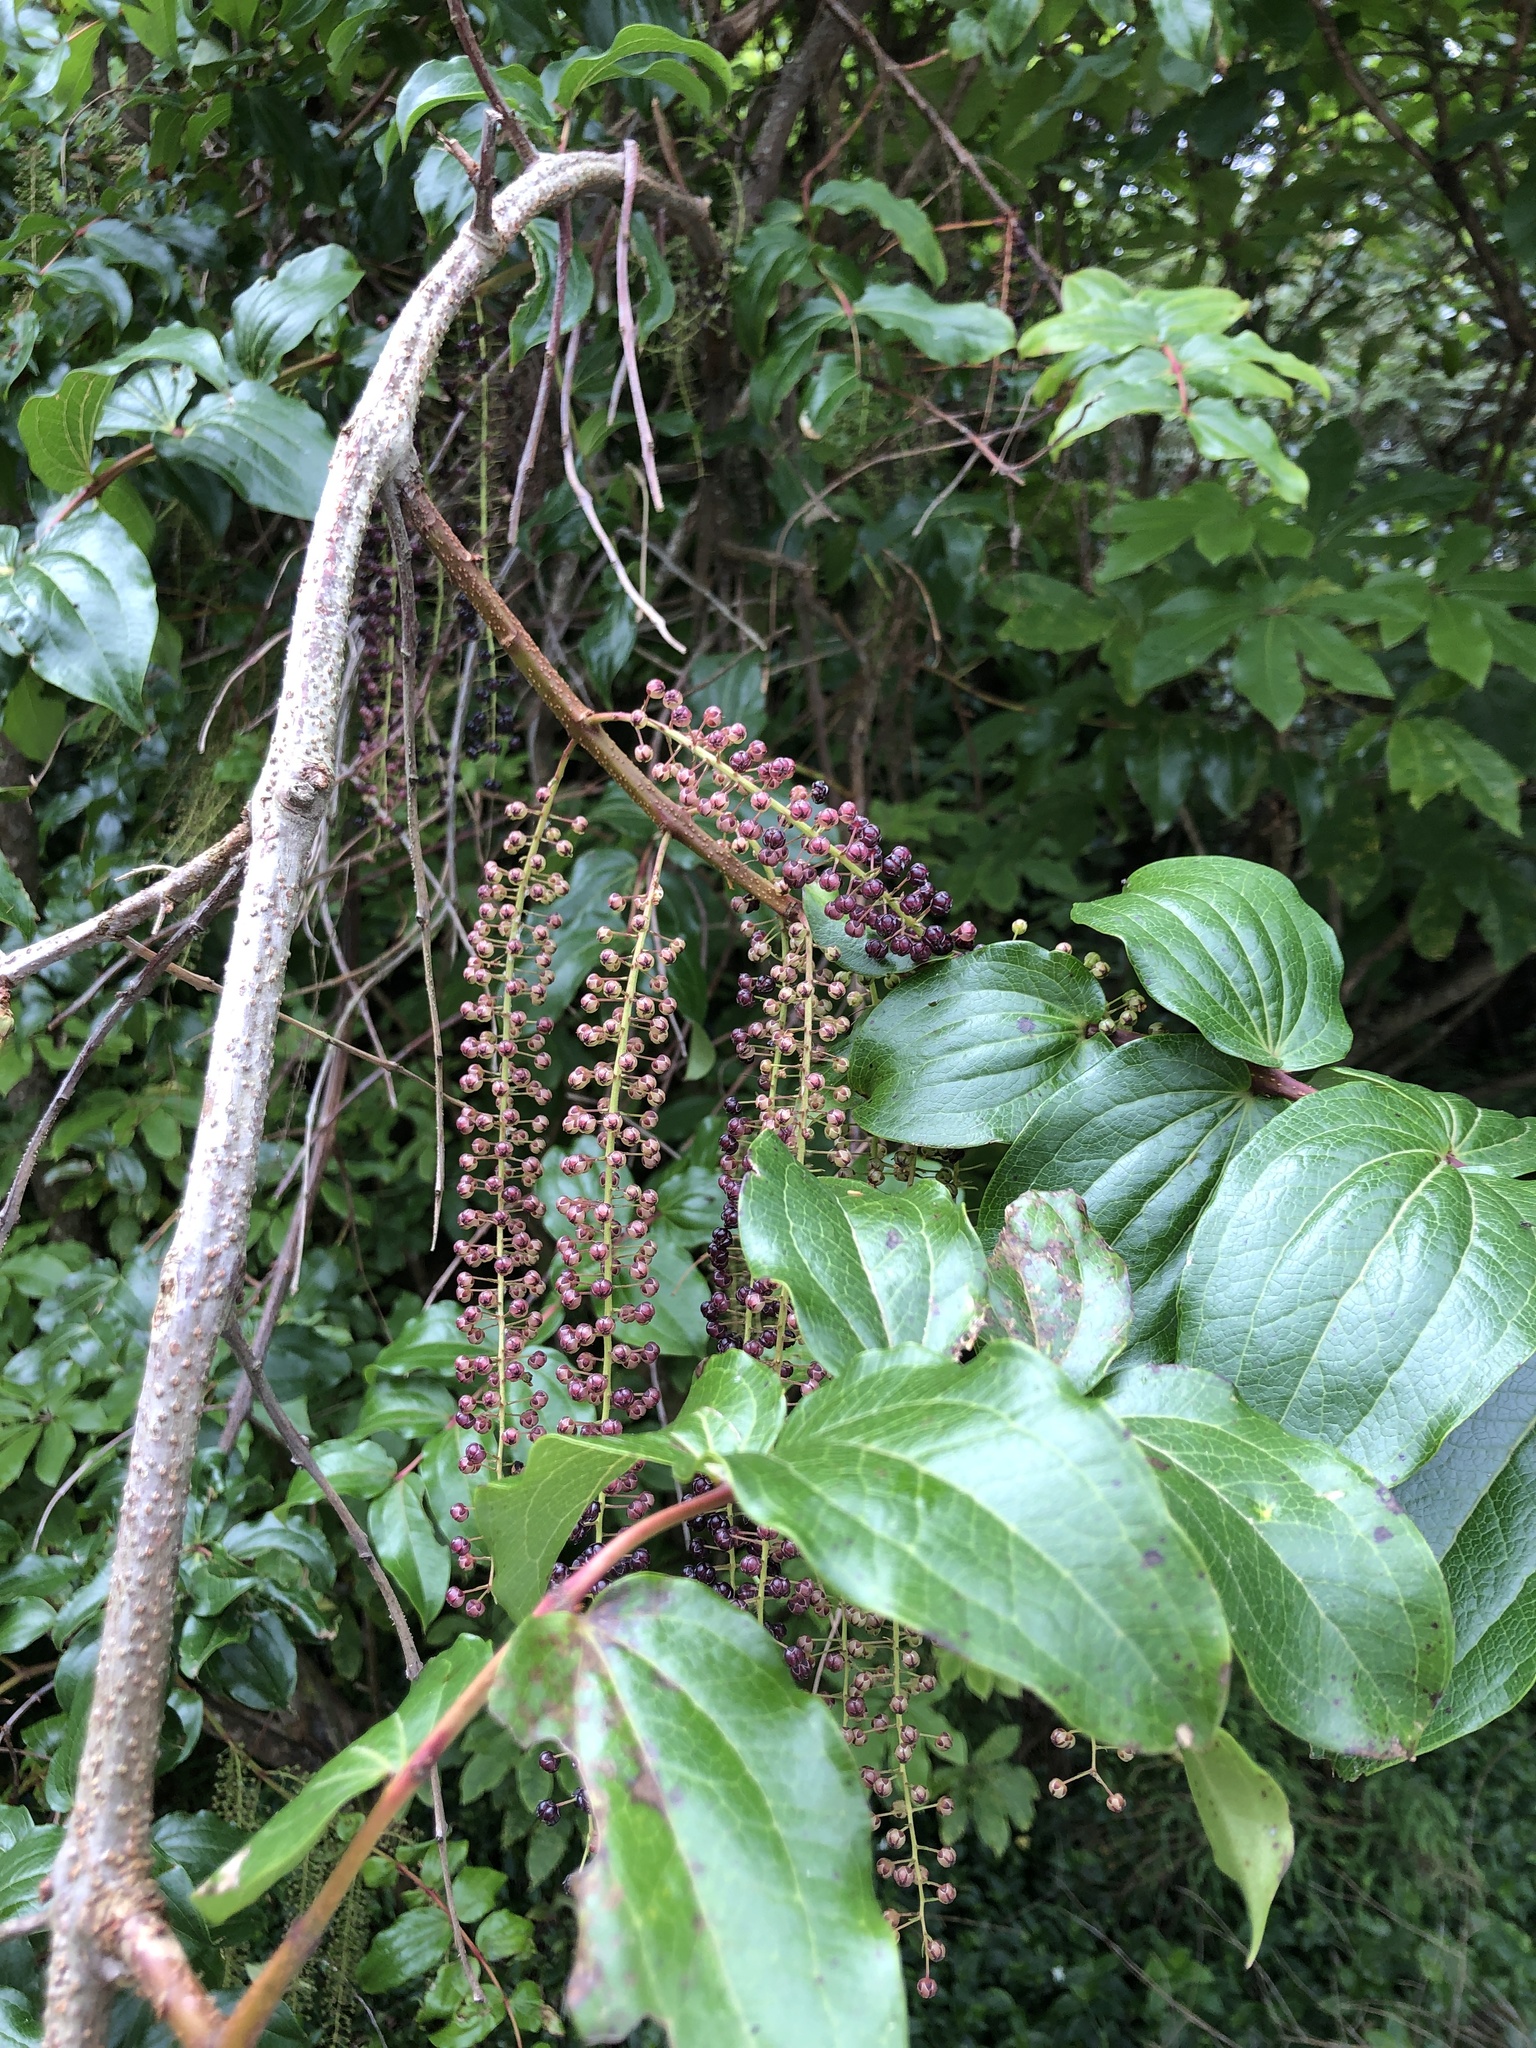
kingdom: Plantae
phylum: Tracheophyta
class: Magnoliopsida
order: Cucurbitales
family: Coriariaceae
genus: Coriaria
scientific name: Coriaria arborea
